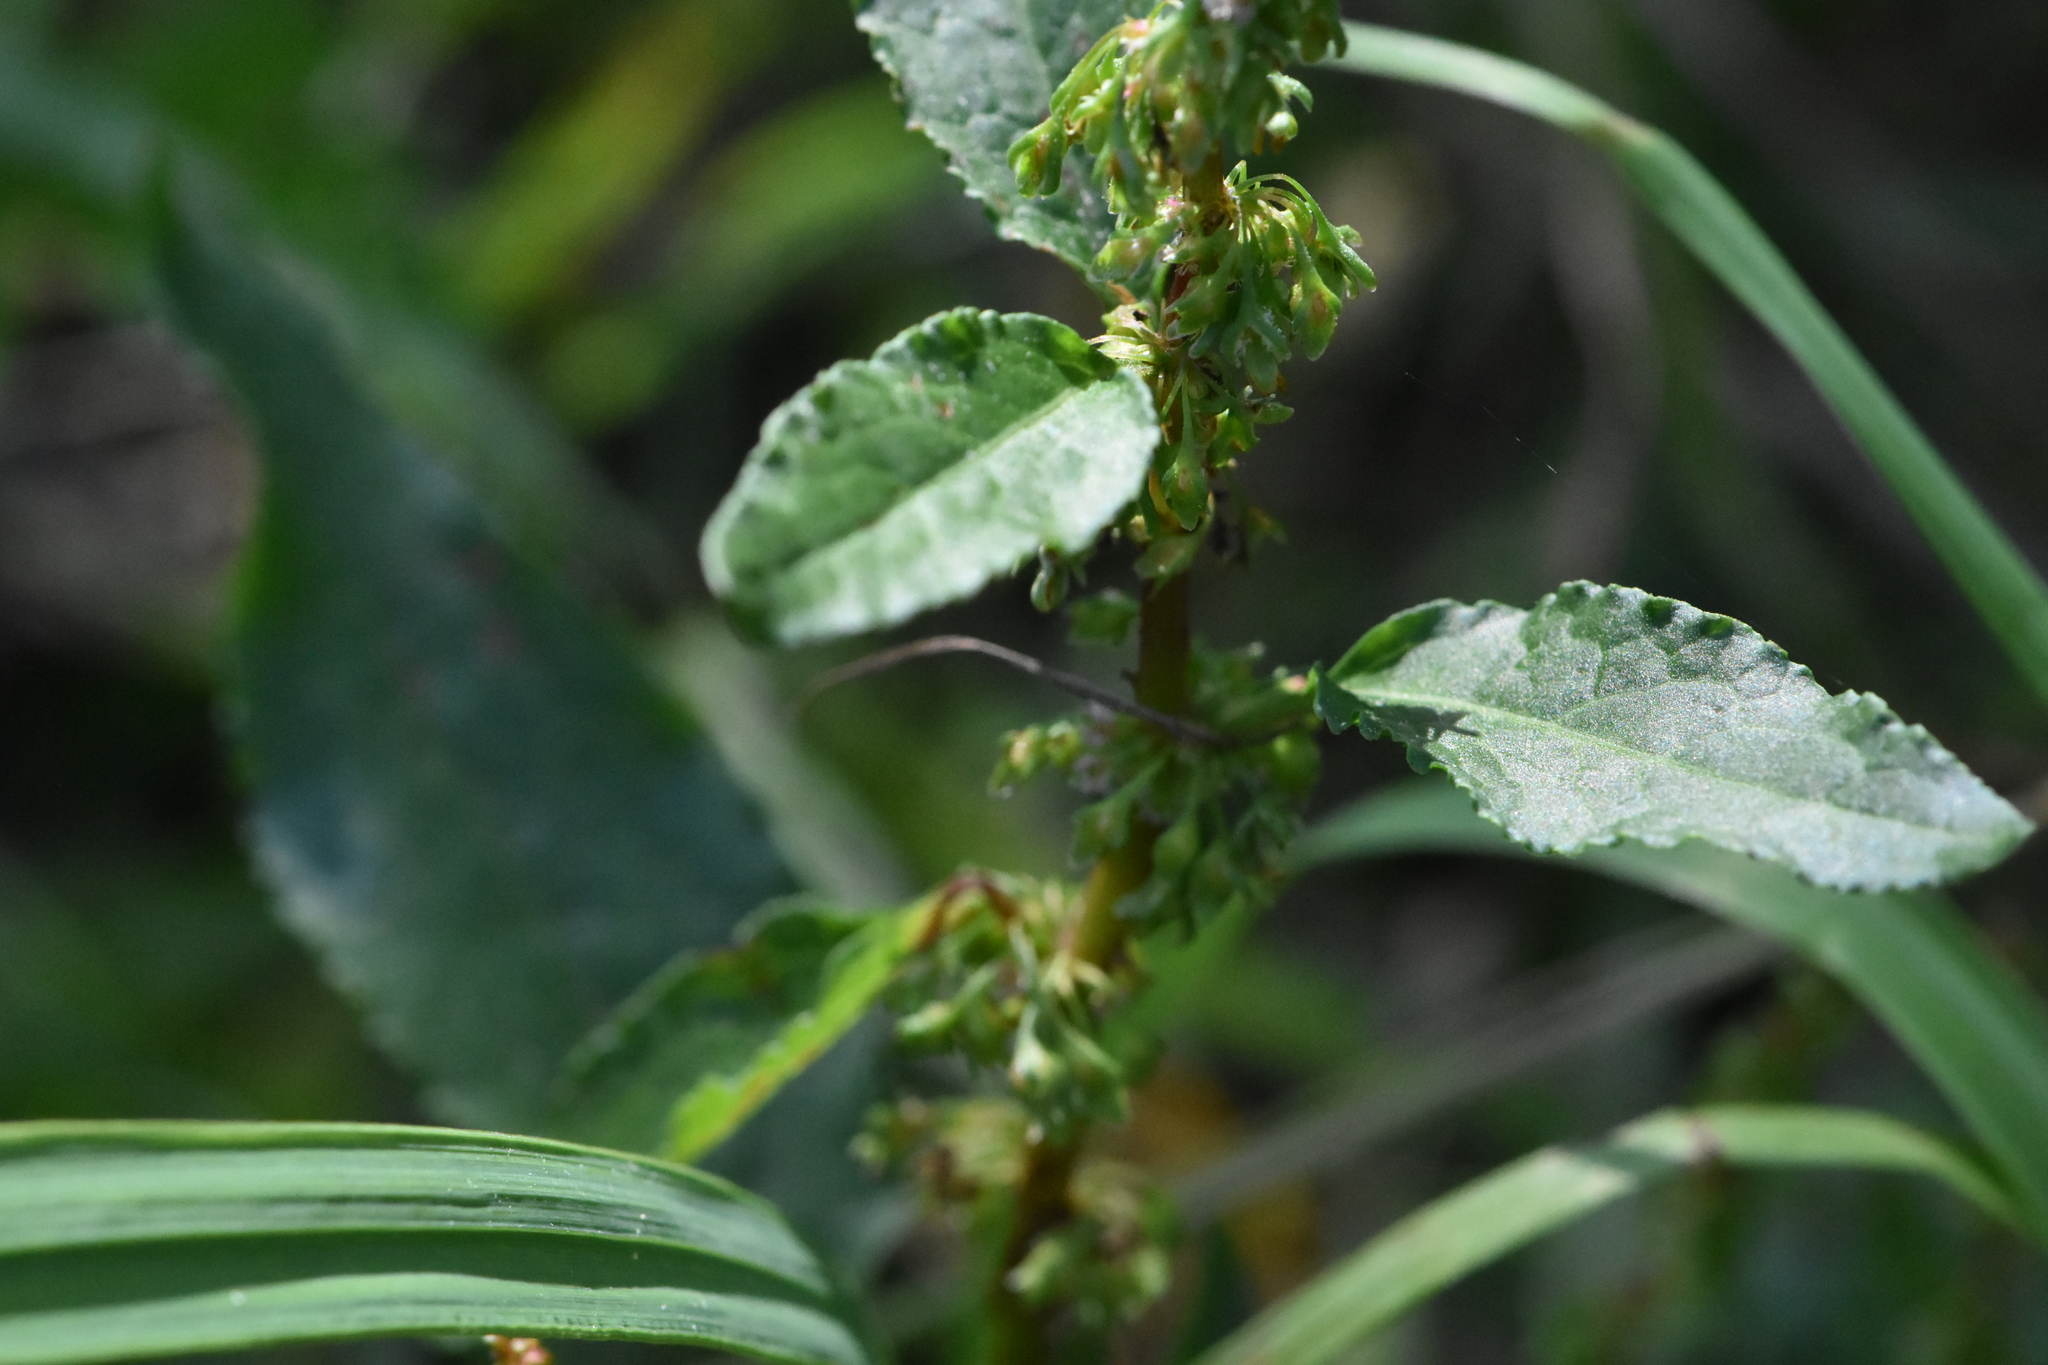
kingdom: Plantae
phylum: Tracheophyta
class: Magnoliopsida
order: Caryophyllales
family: Polygonaceae
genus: Rumex
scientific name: Rumex obtusifolius
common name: Bitter dock
